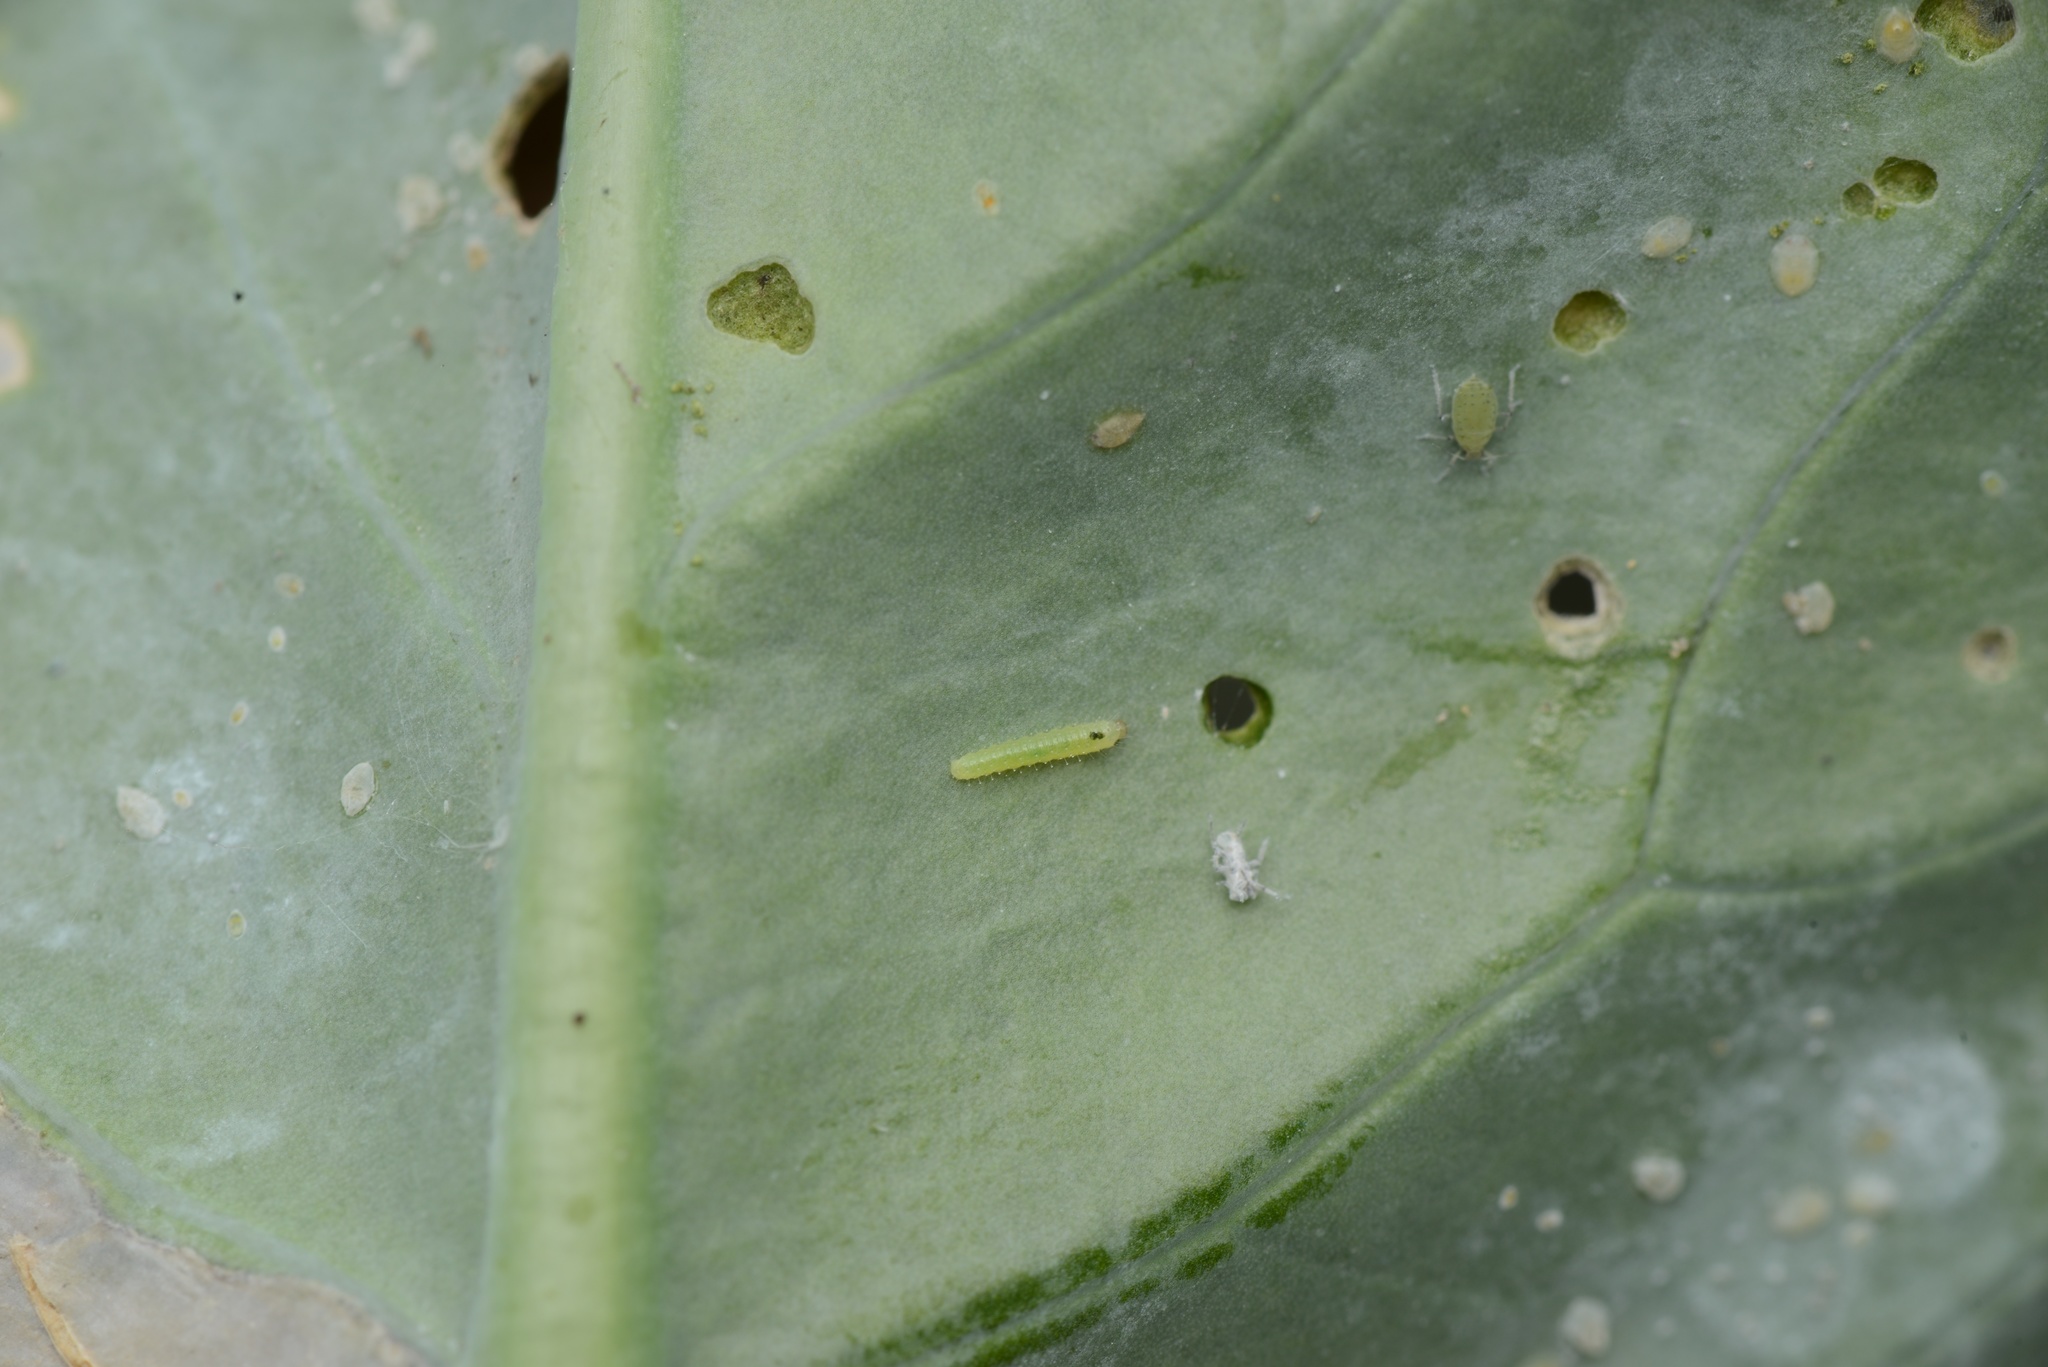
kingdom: Animalia
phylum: Arthropoda
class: Insecta
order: Lepidoptera
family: Pieridae
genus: Pieris
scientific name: Pieris rapae
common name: Small white
